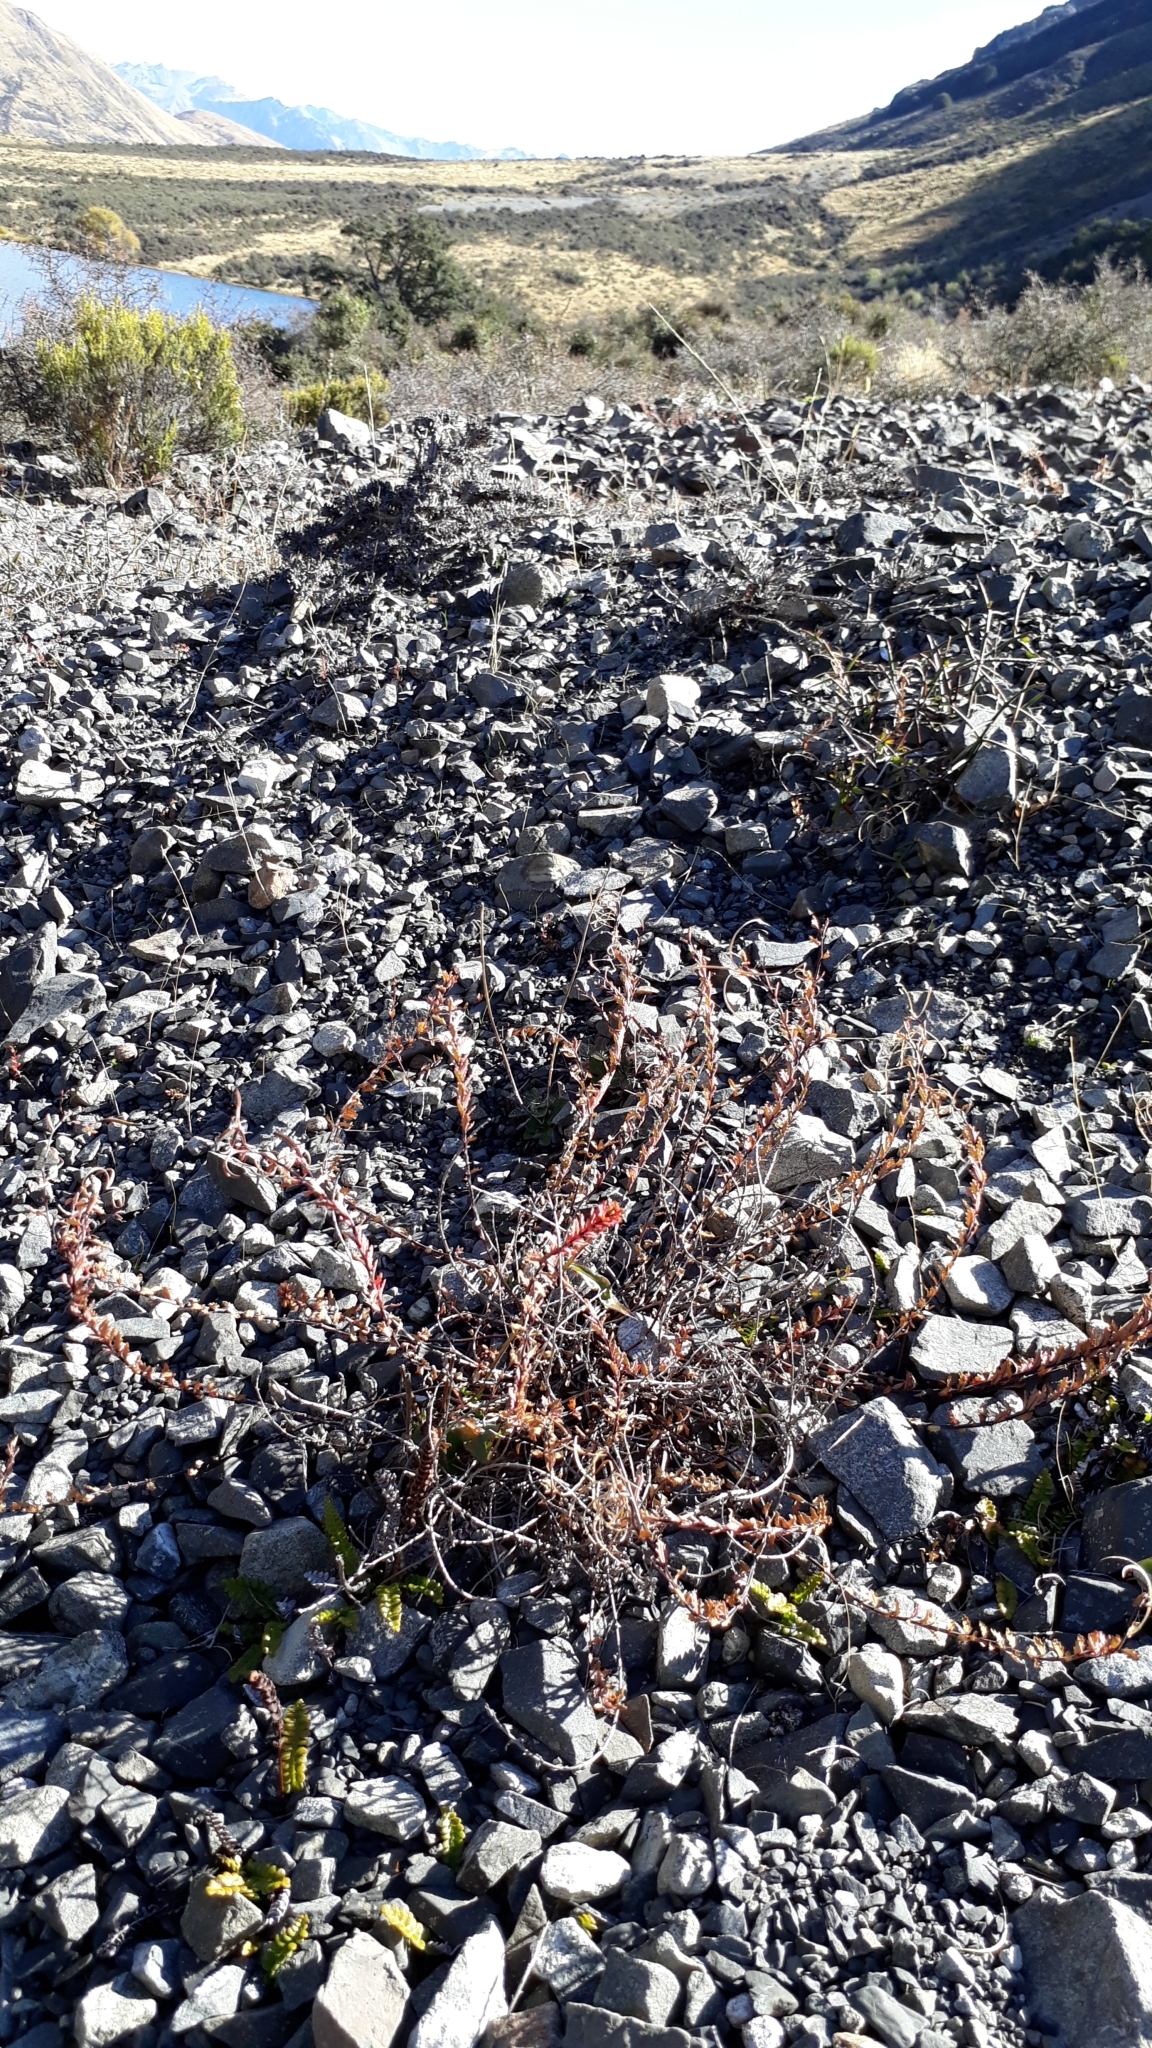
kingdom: Plantae
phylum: Tracheophyta
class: Magnoliopsida
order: Myrtales
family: Onagraceae
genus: Epilobium
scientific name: Epilobium melanocaulon
